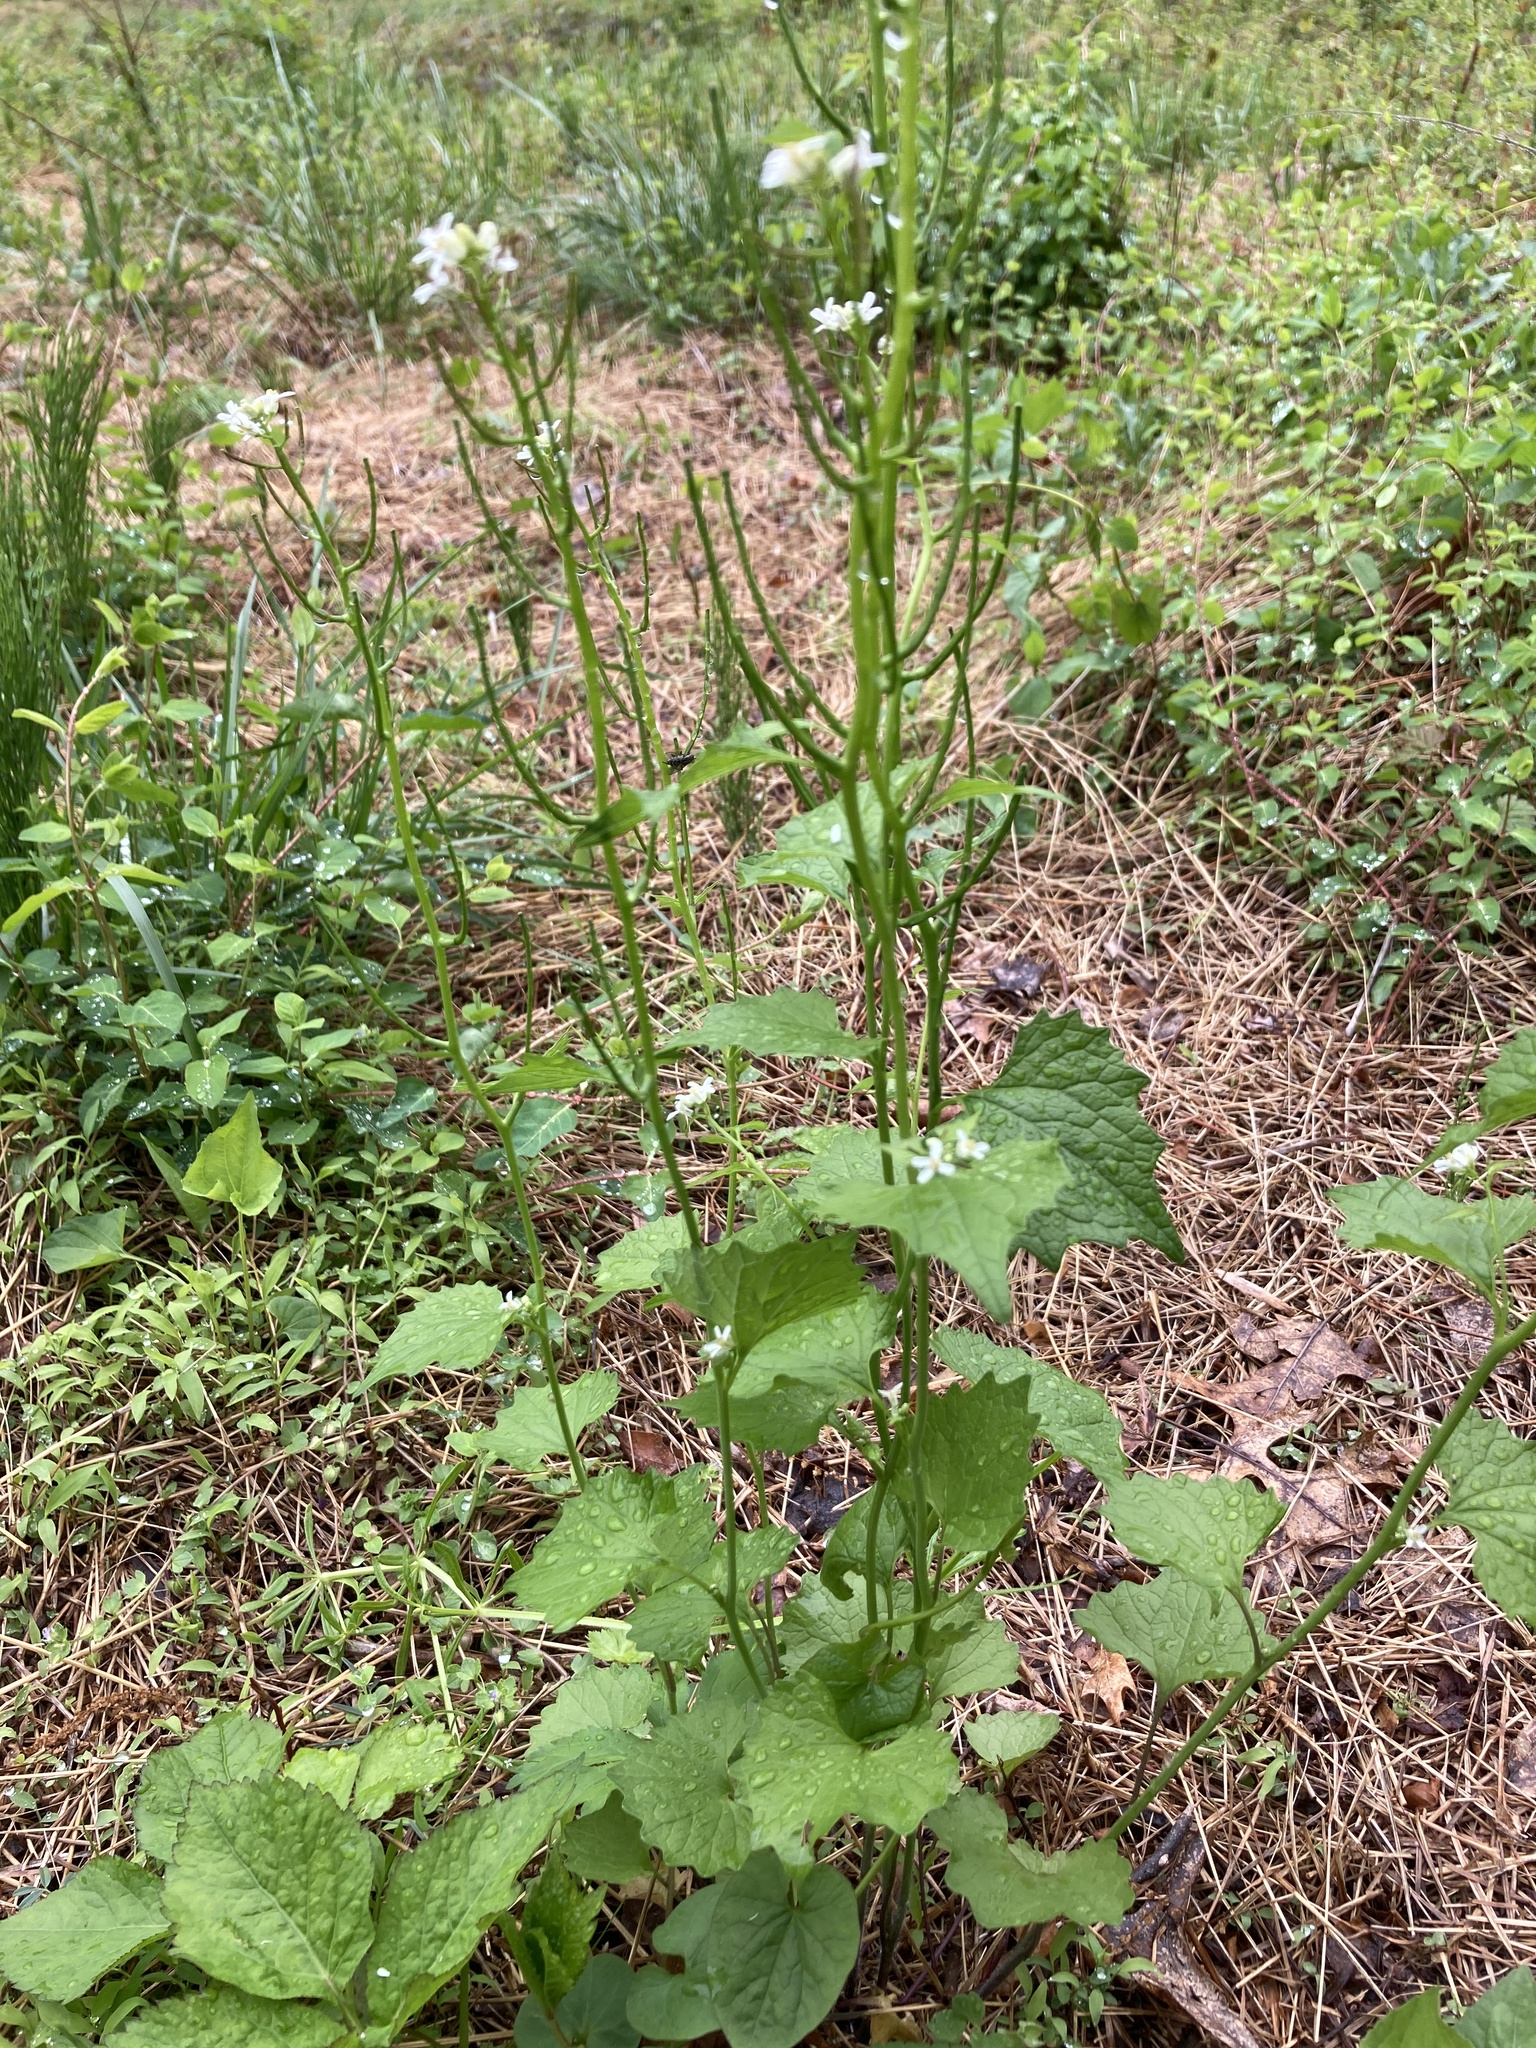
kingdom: Plantae
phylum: Tracheophyta
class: Magnoliopsida
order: Brassicales
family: Brassicaceae
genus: Alliaria
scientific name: Alliaria petiolata
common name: Garlic mustard
